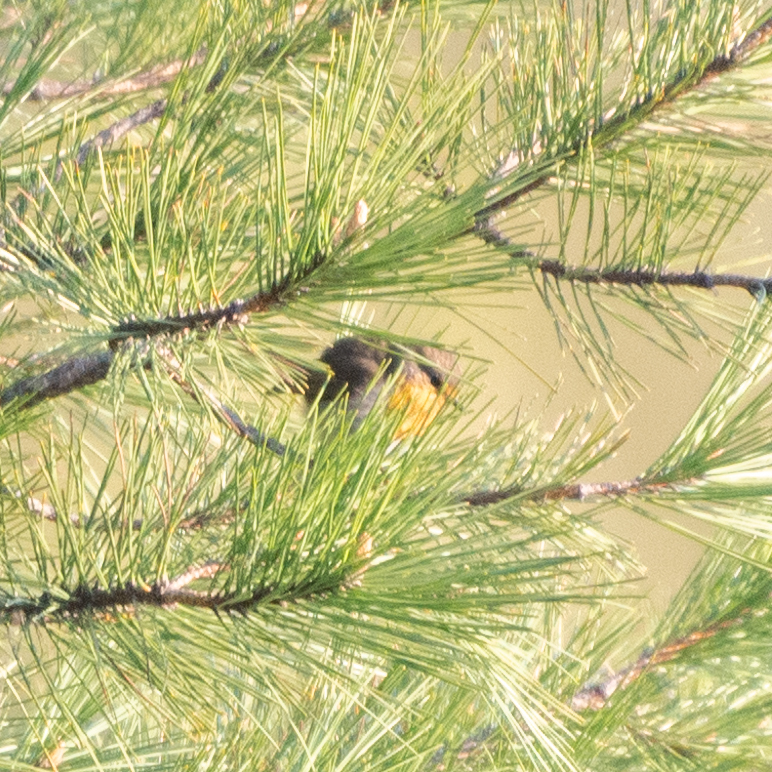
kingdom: Animalia
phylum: Chordata
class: Aves
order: Passeriformes
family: Muscicapidae
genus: Erithacus
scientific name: Erithacus rubecula
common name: European robin
